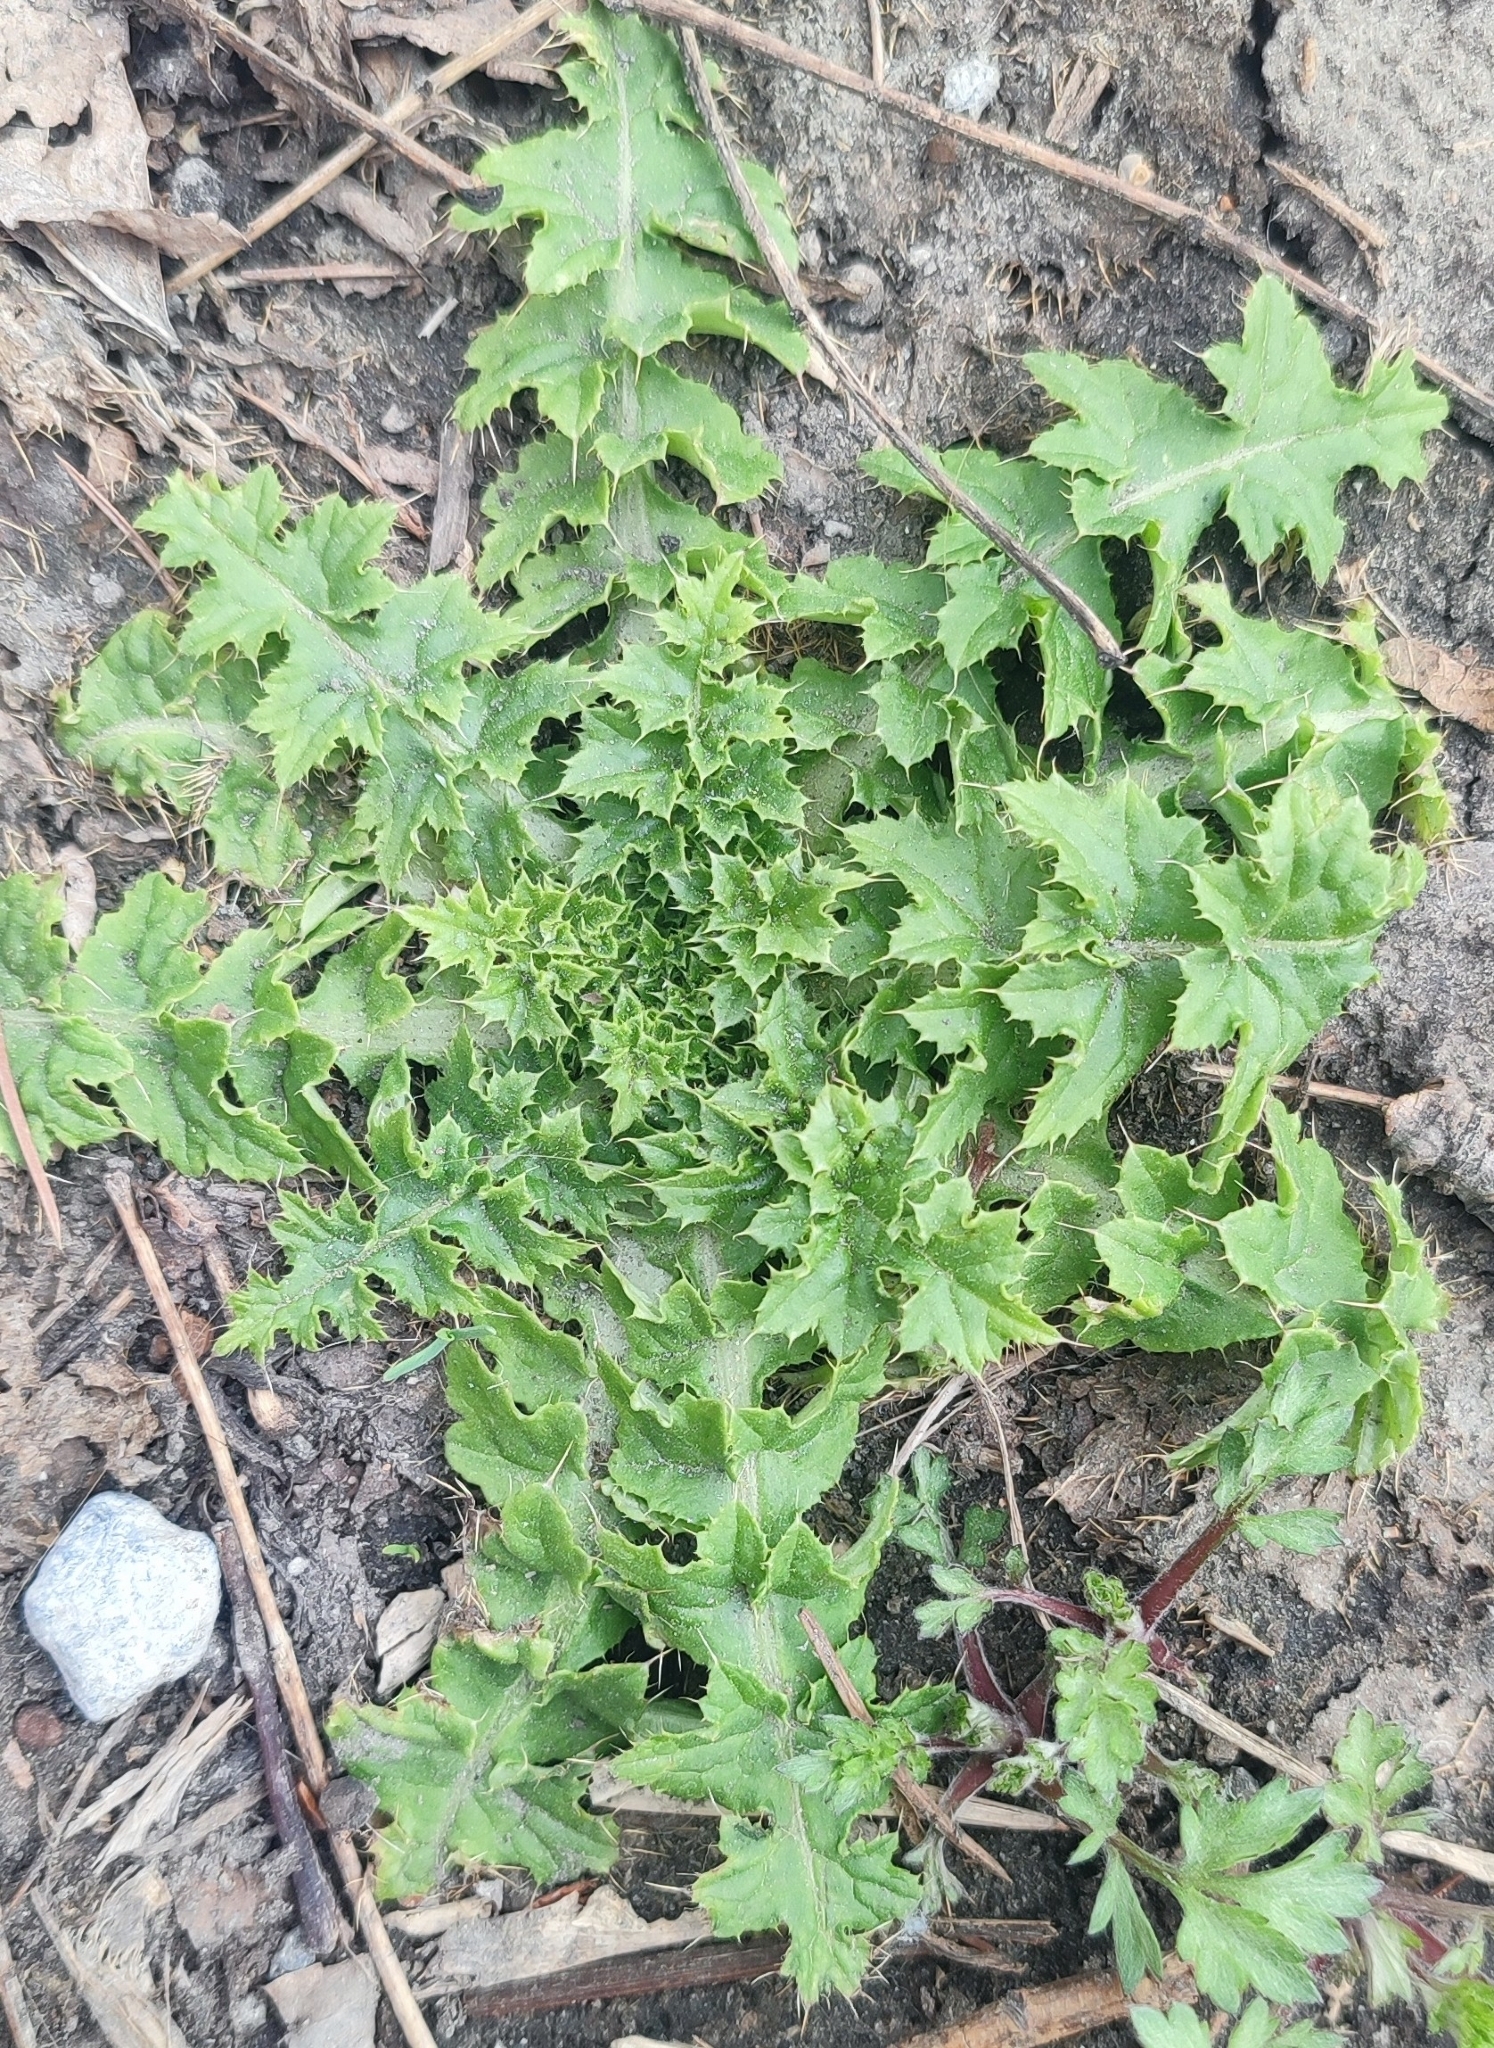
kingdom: Plantae
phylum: Tracheophyta
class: Magnoliopsida
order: Asterales
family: Asteraceae
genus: Carduus
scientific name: Carduus crispus
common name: Welted thistle
